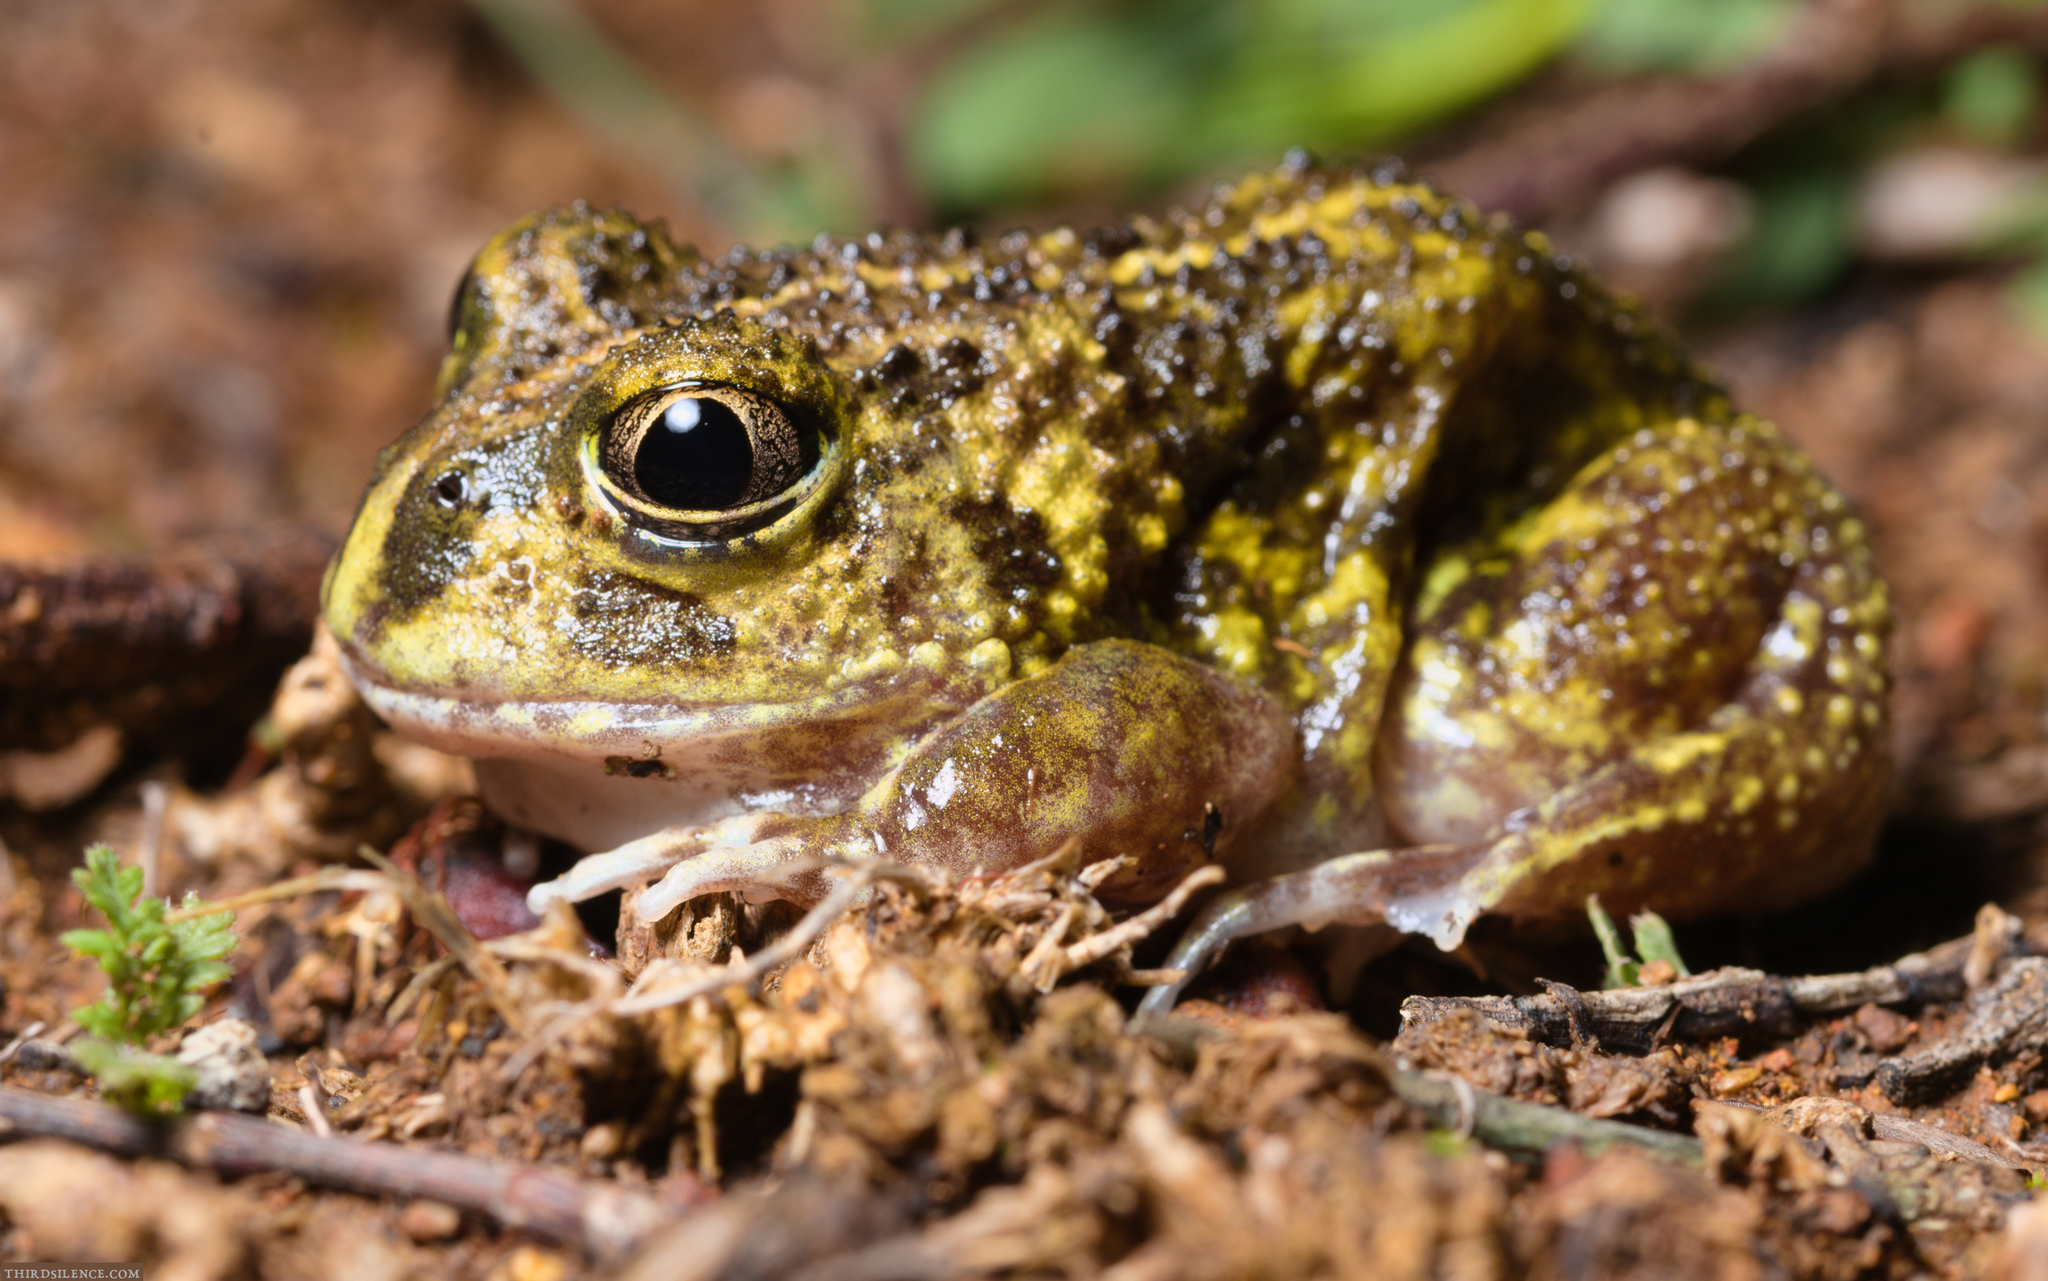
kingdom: Animalia
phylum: Chordata
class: Amphibia
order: Anura
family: Limnodynastidae
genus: Neobatrachus
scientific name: Neobatrachus sudelli
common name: Common spadefoot toad
